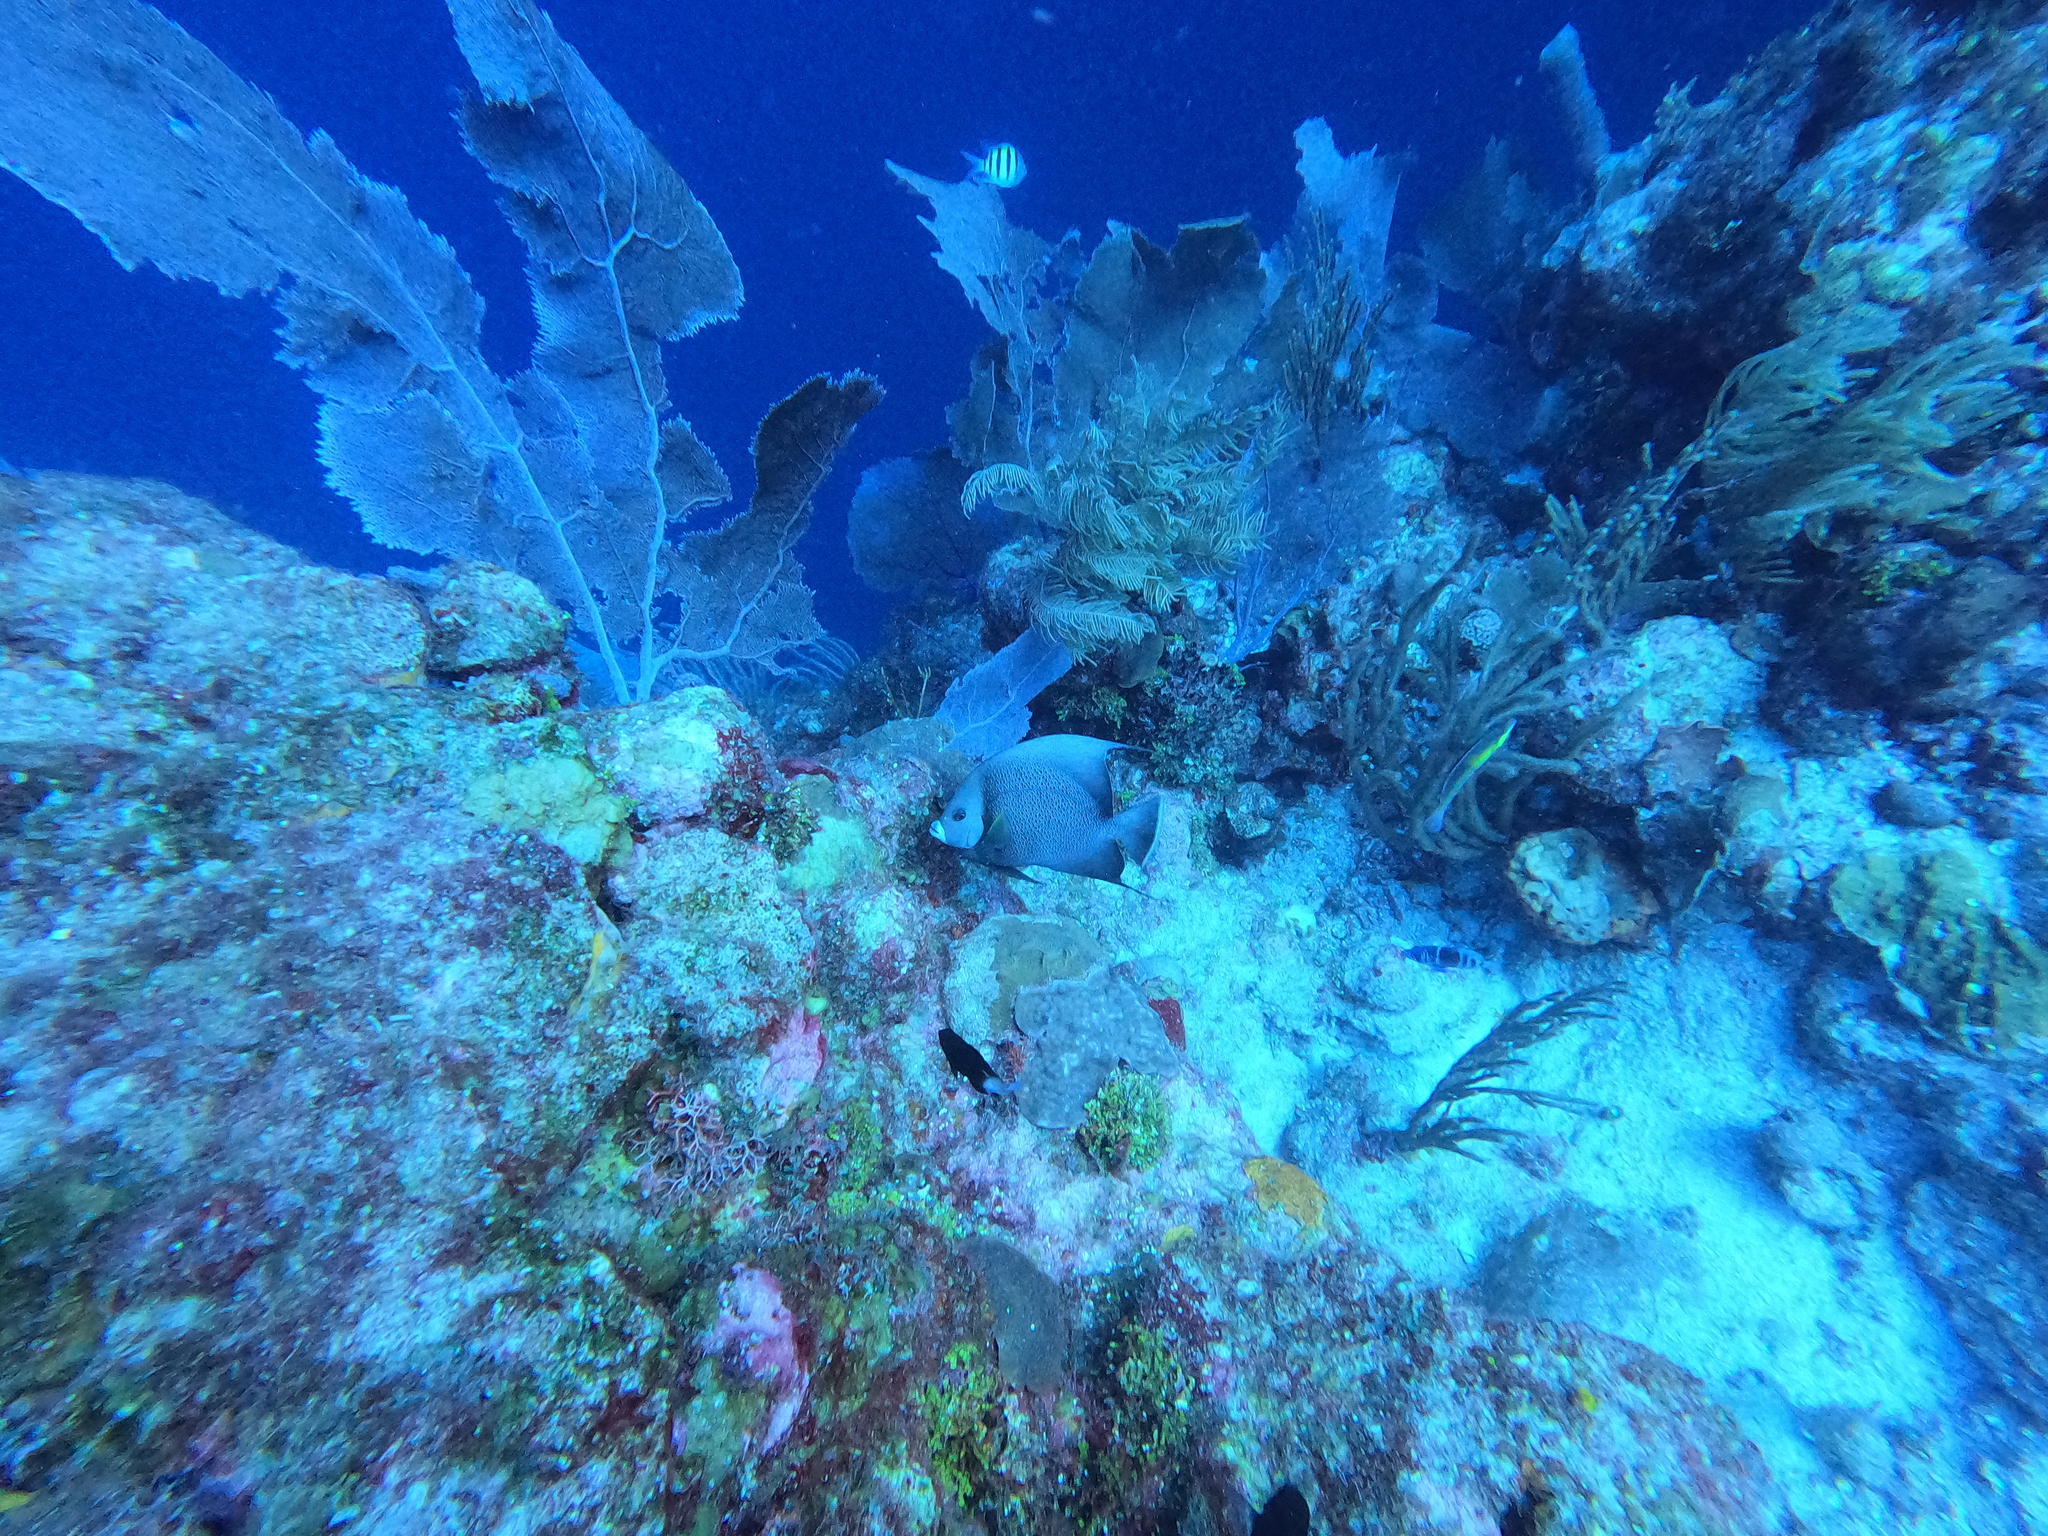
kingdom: Animalia
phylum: Chordata
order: Perciformes
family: Pomacanthidae
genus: Pomacanthus
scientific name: Pomacanthus arcuatus
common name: Gray angelfish
